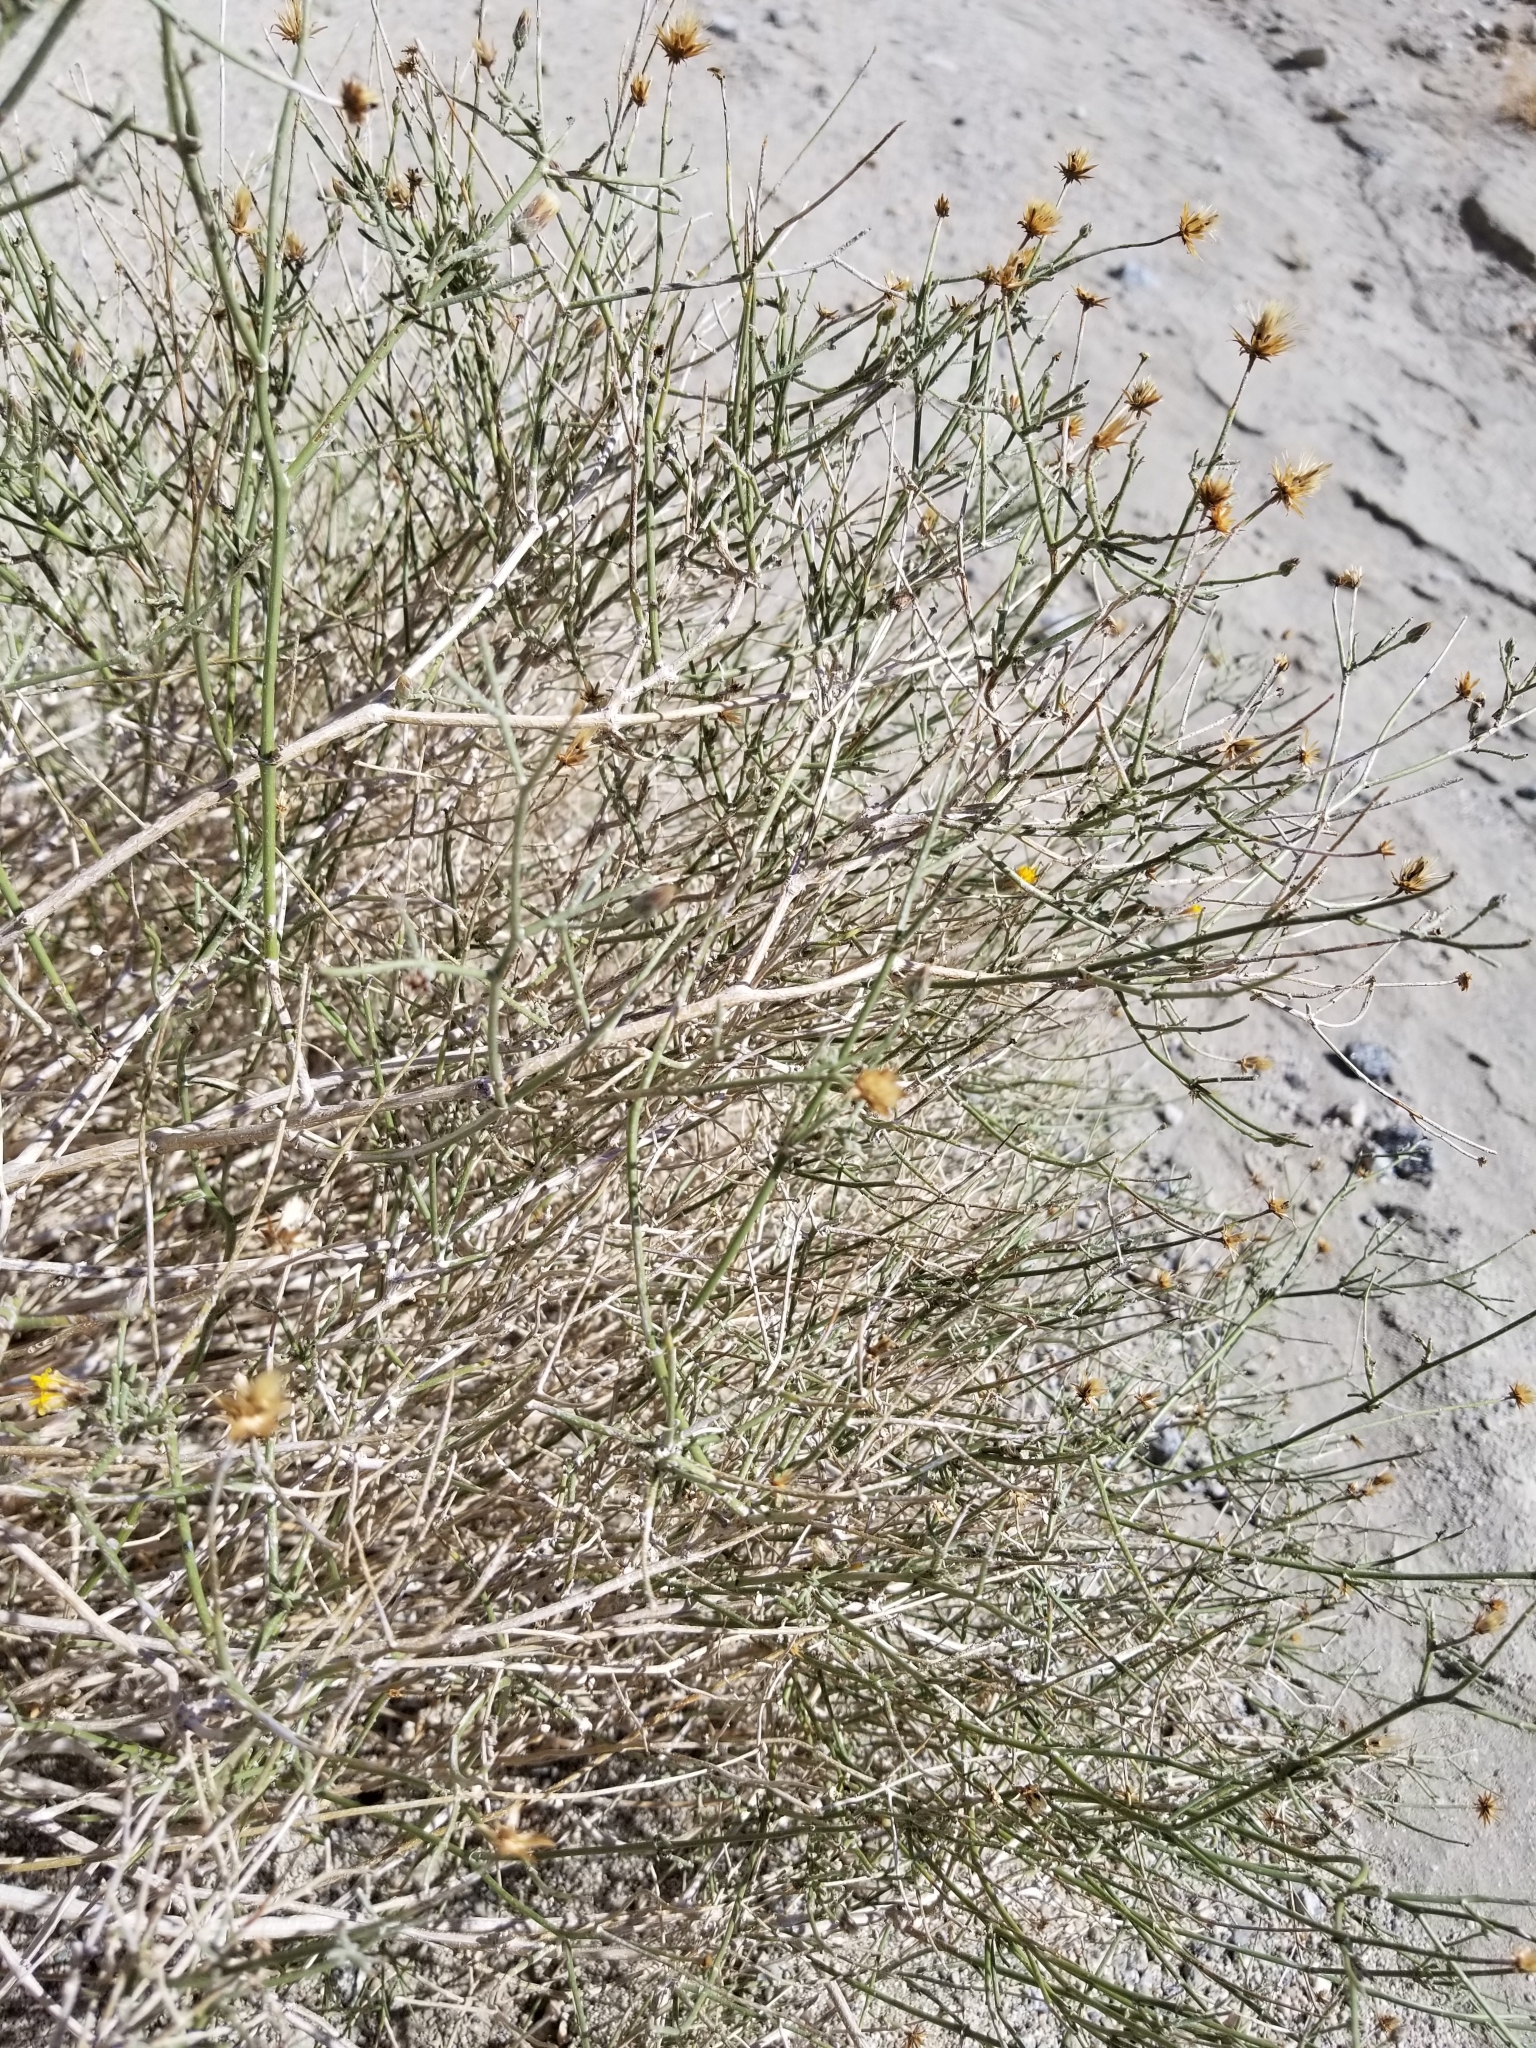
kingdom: Plantae
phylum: Tracheophyta
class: Magnoliopsida
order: Asterales
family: Asteraceae
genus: Bebbia
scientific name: Bebbia juncea
